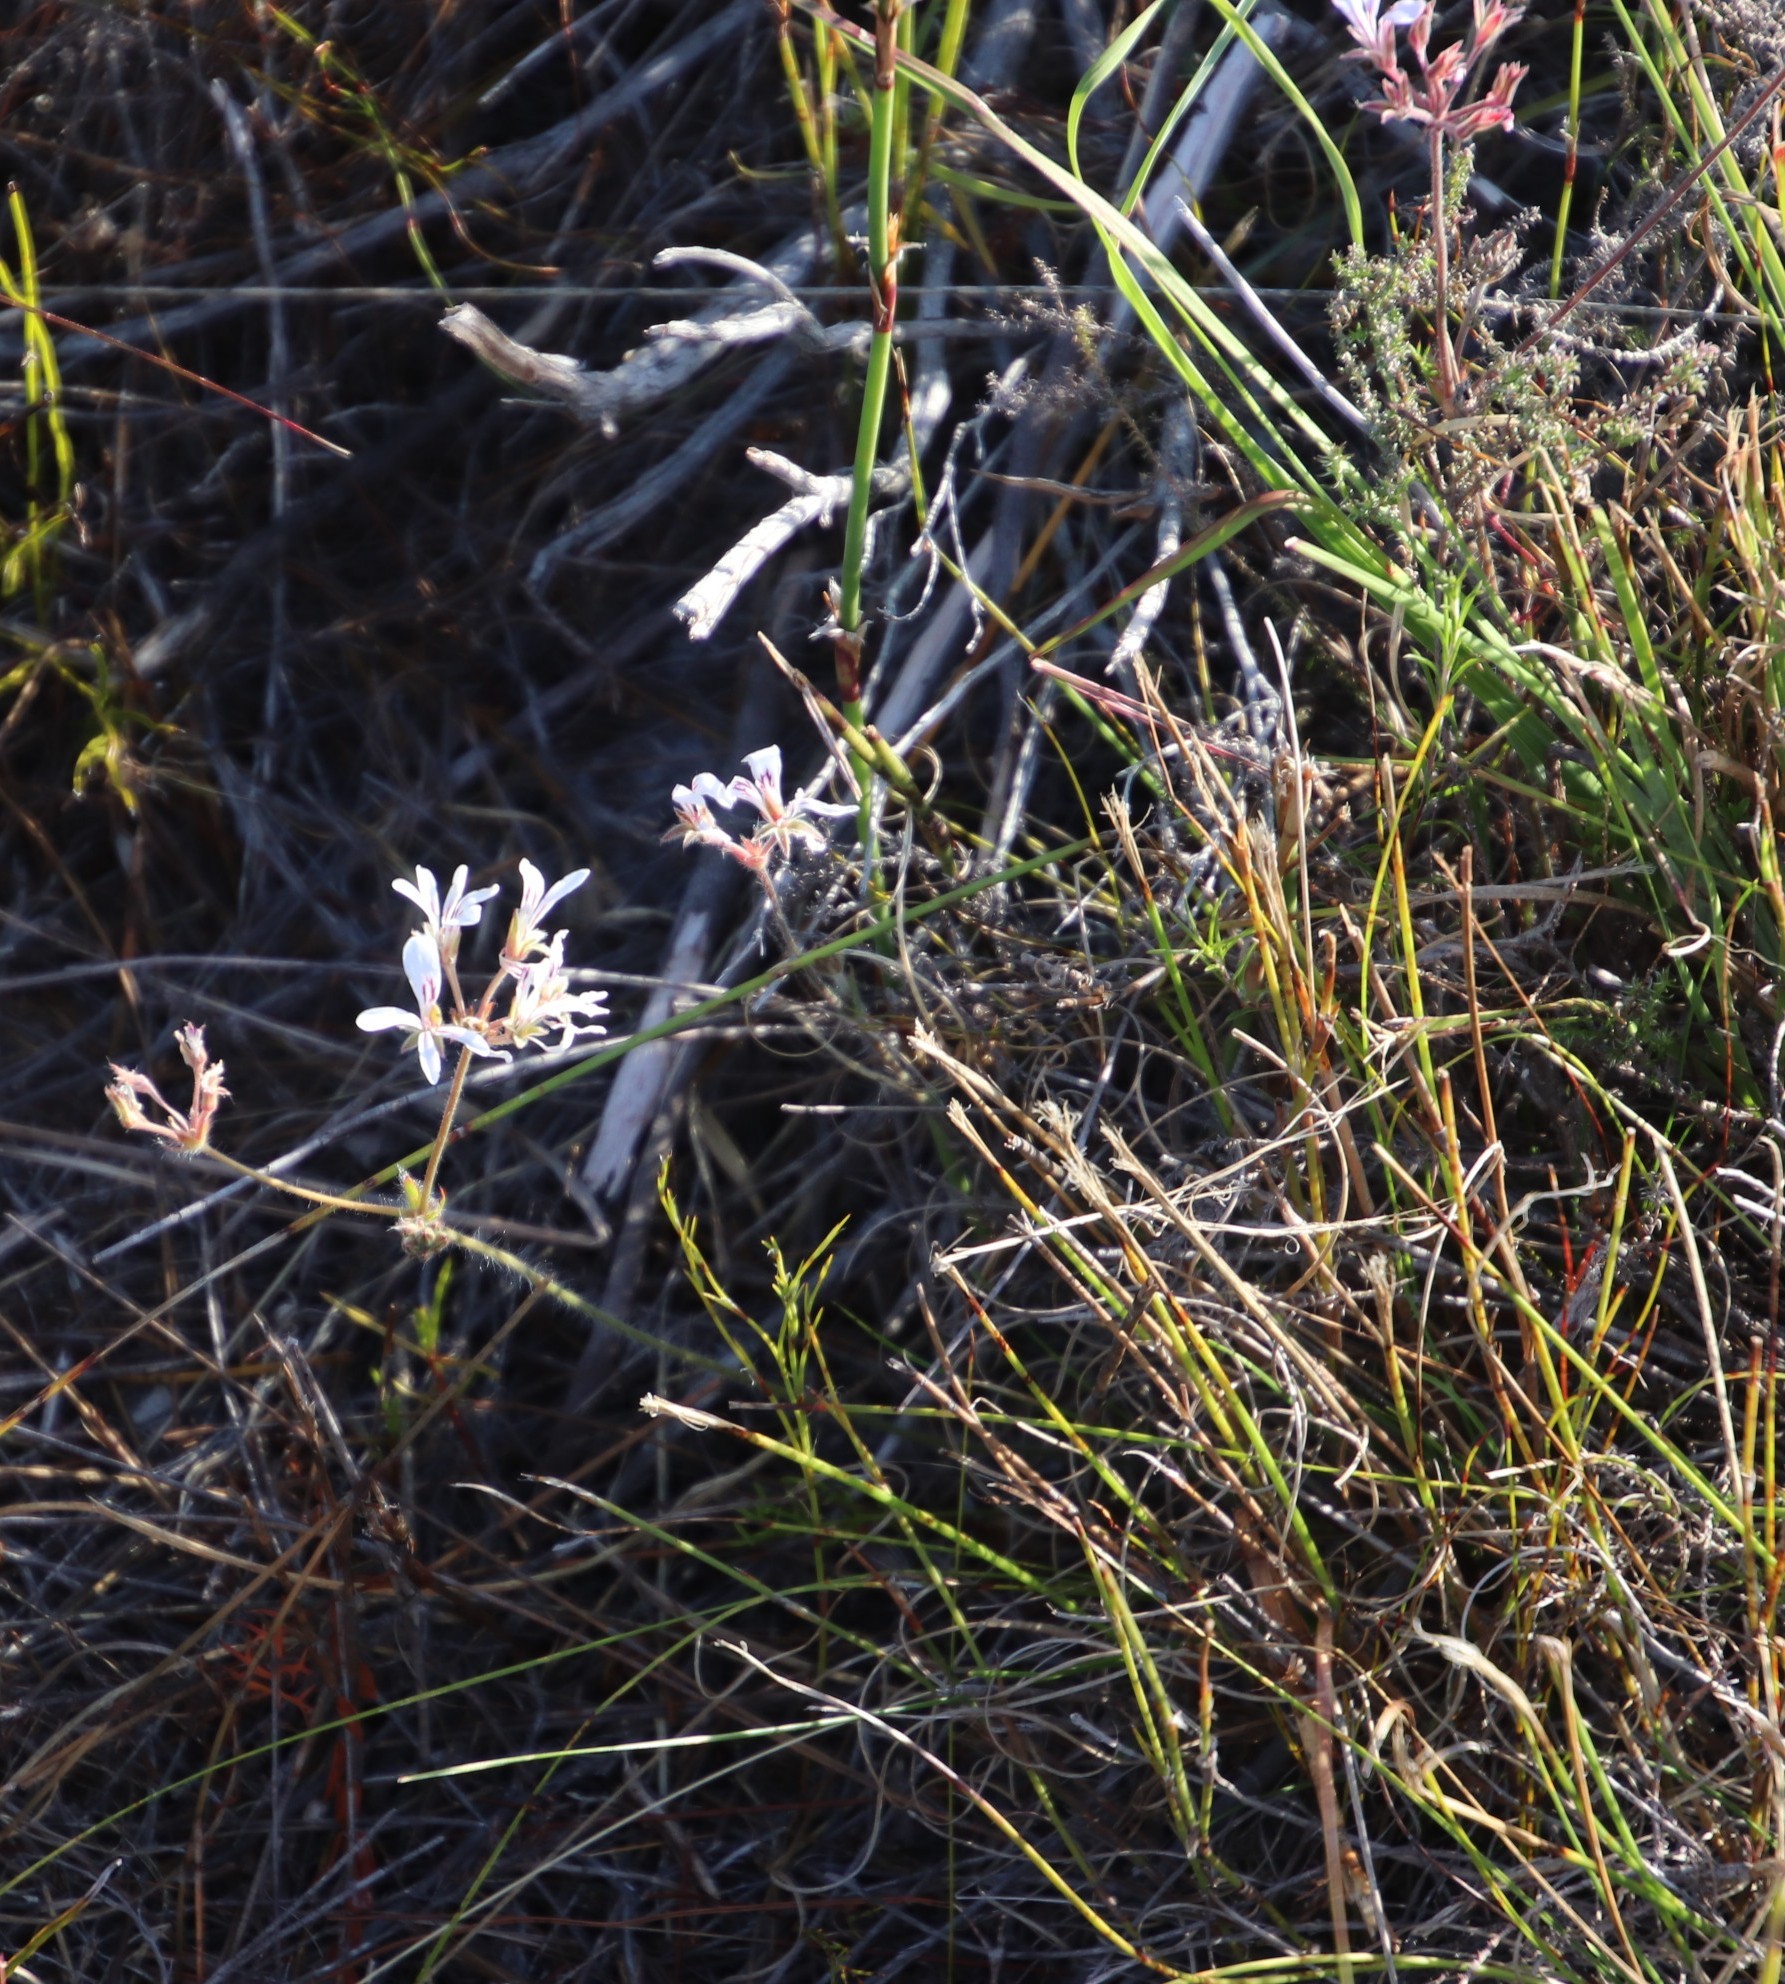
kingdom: Plantae
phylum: Tracheophyta
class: Magnoliopsida
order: Geraniales
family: Geraniaceae
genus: Pelargonium
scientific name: Pelargonium proliferum
